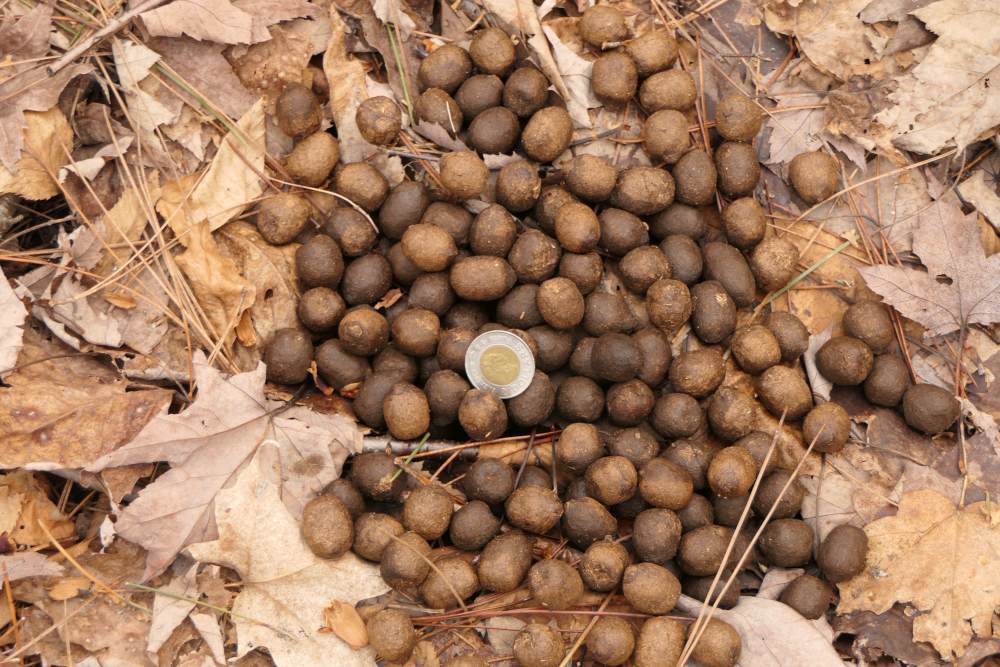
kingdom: Animalia
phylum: Chordata
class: Mammalia
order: Artiodactyla
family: Cervidae
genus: Alces
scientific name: Alces alces
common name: Moose
